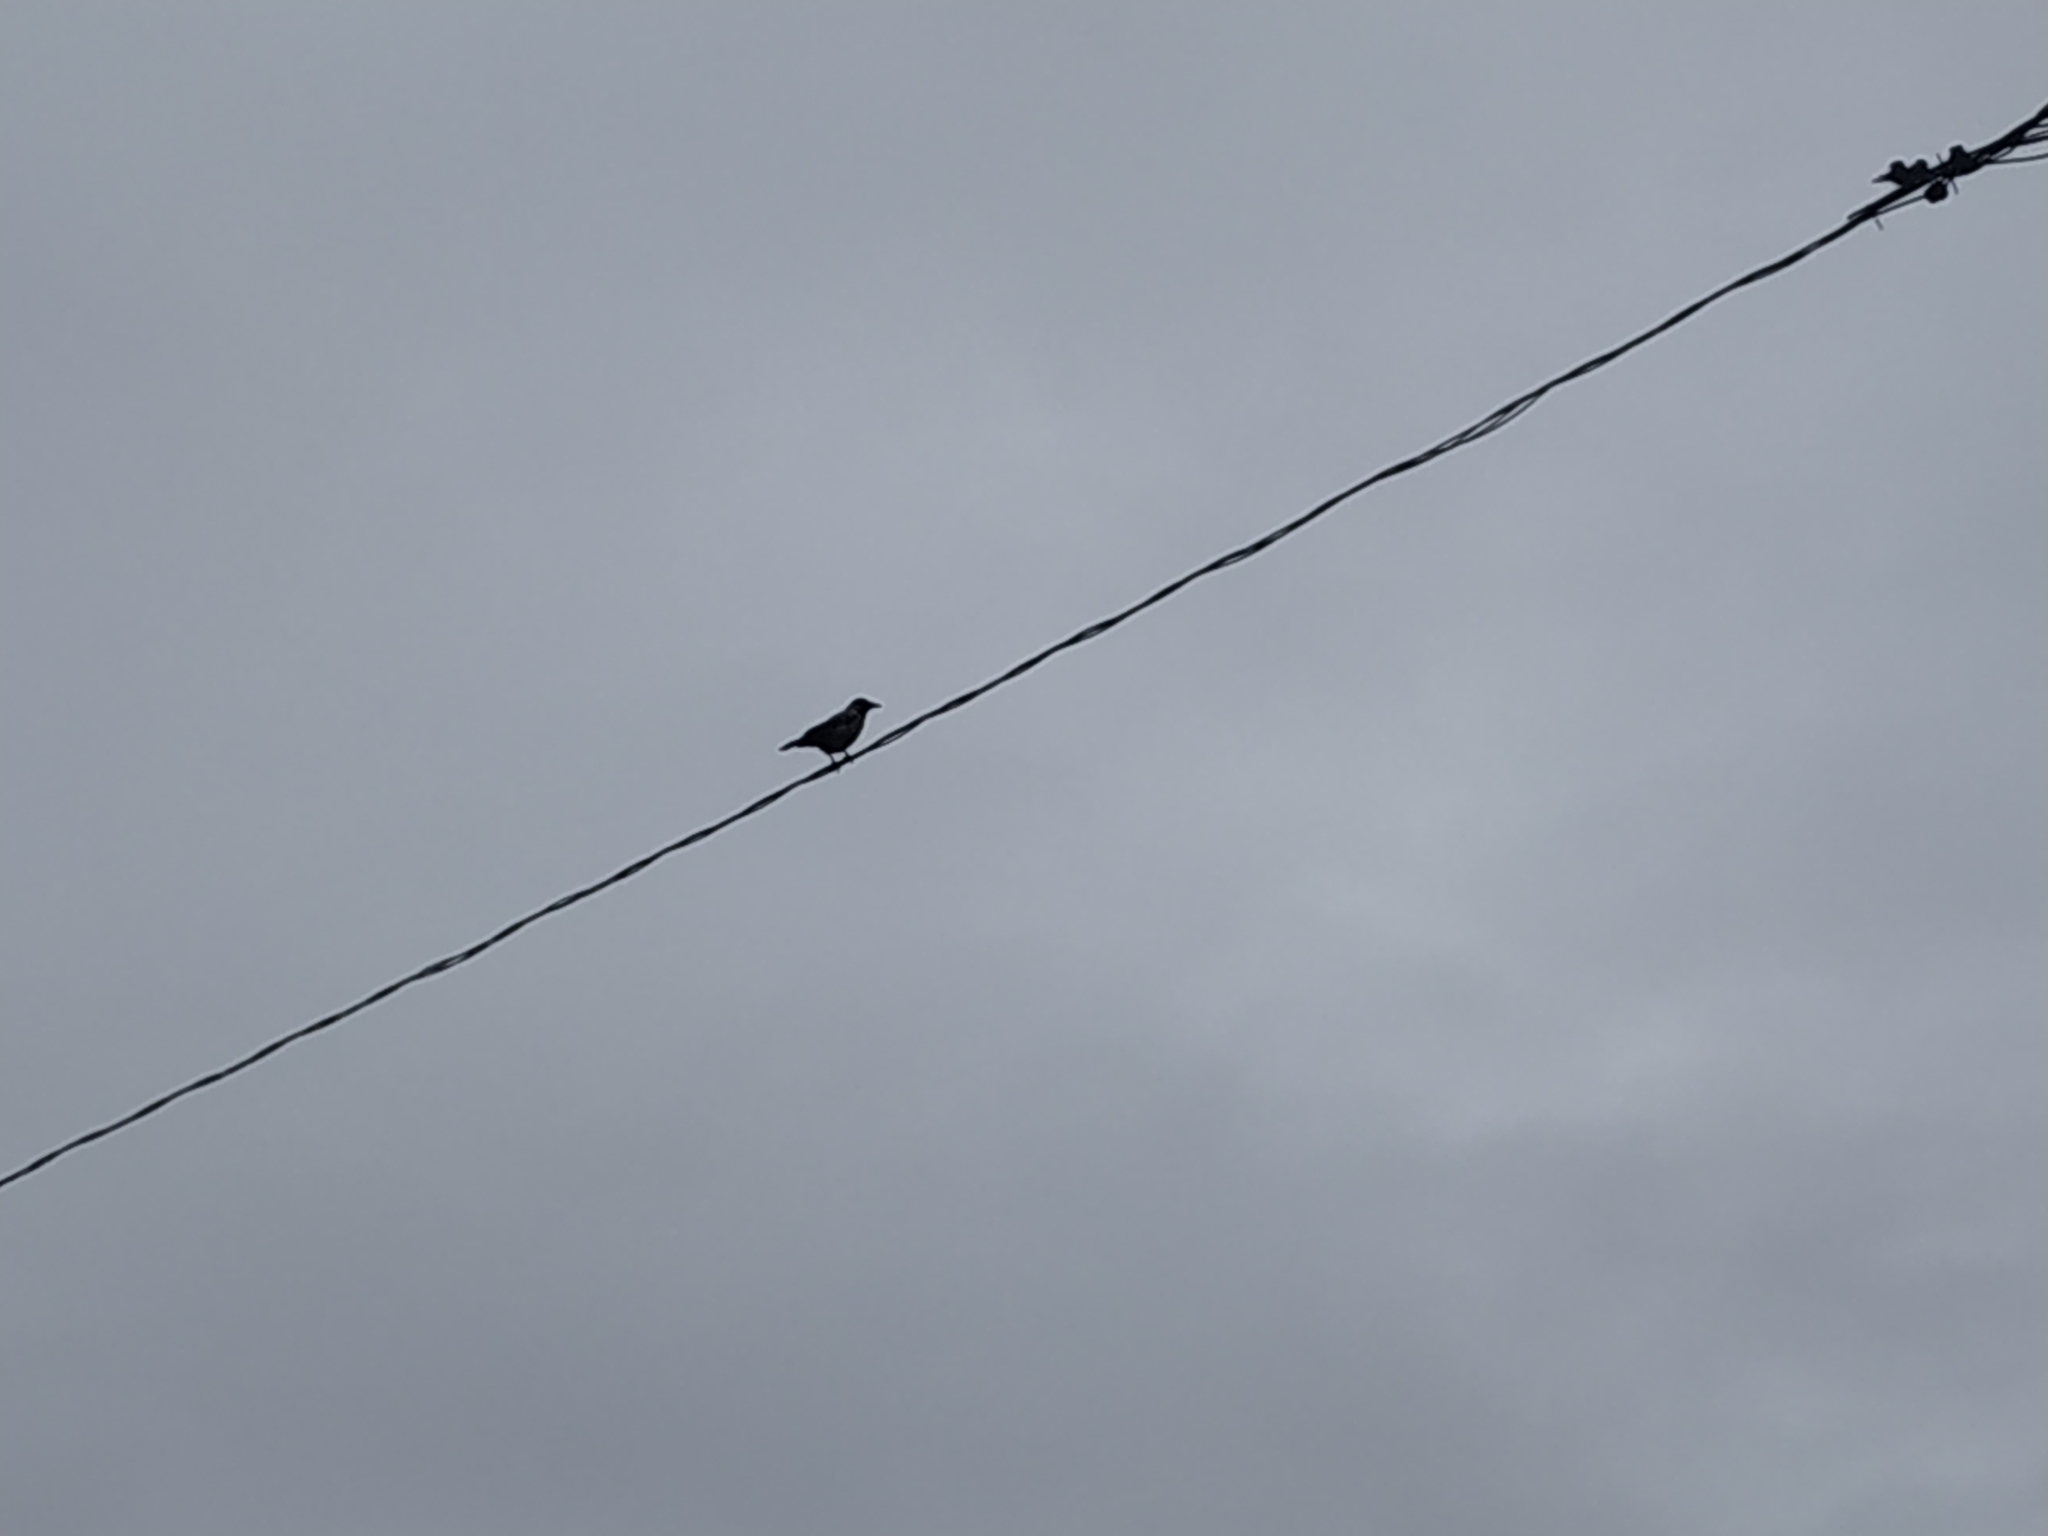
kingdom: Animalia
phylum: Chordata
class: Aves
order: Passeriformes
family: Corvidae
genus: Corvus
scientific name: Corvus cornix
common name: Hooded crow
